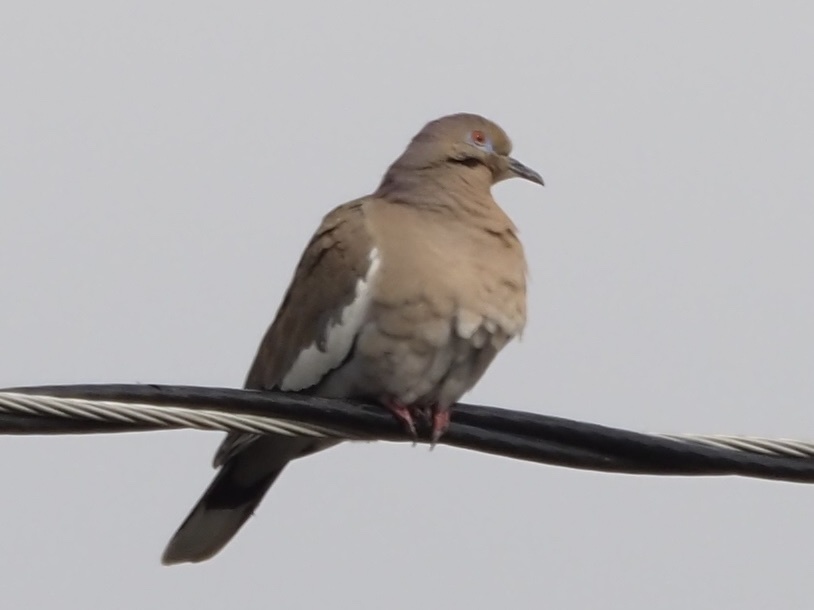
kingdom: Animalia
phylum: Chordata
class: Aves
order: Columbiformes
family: Columbidae
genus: Zenaida
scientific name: Zenaida asiatica
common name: White-winged dove
